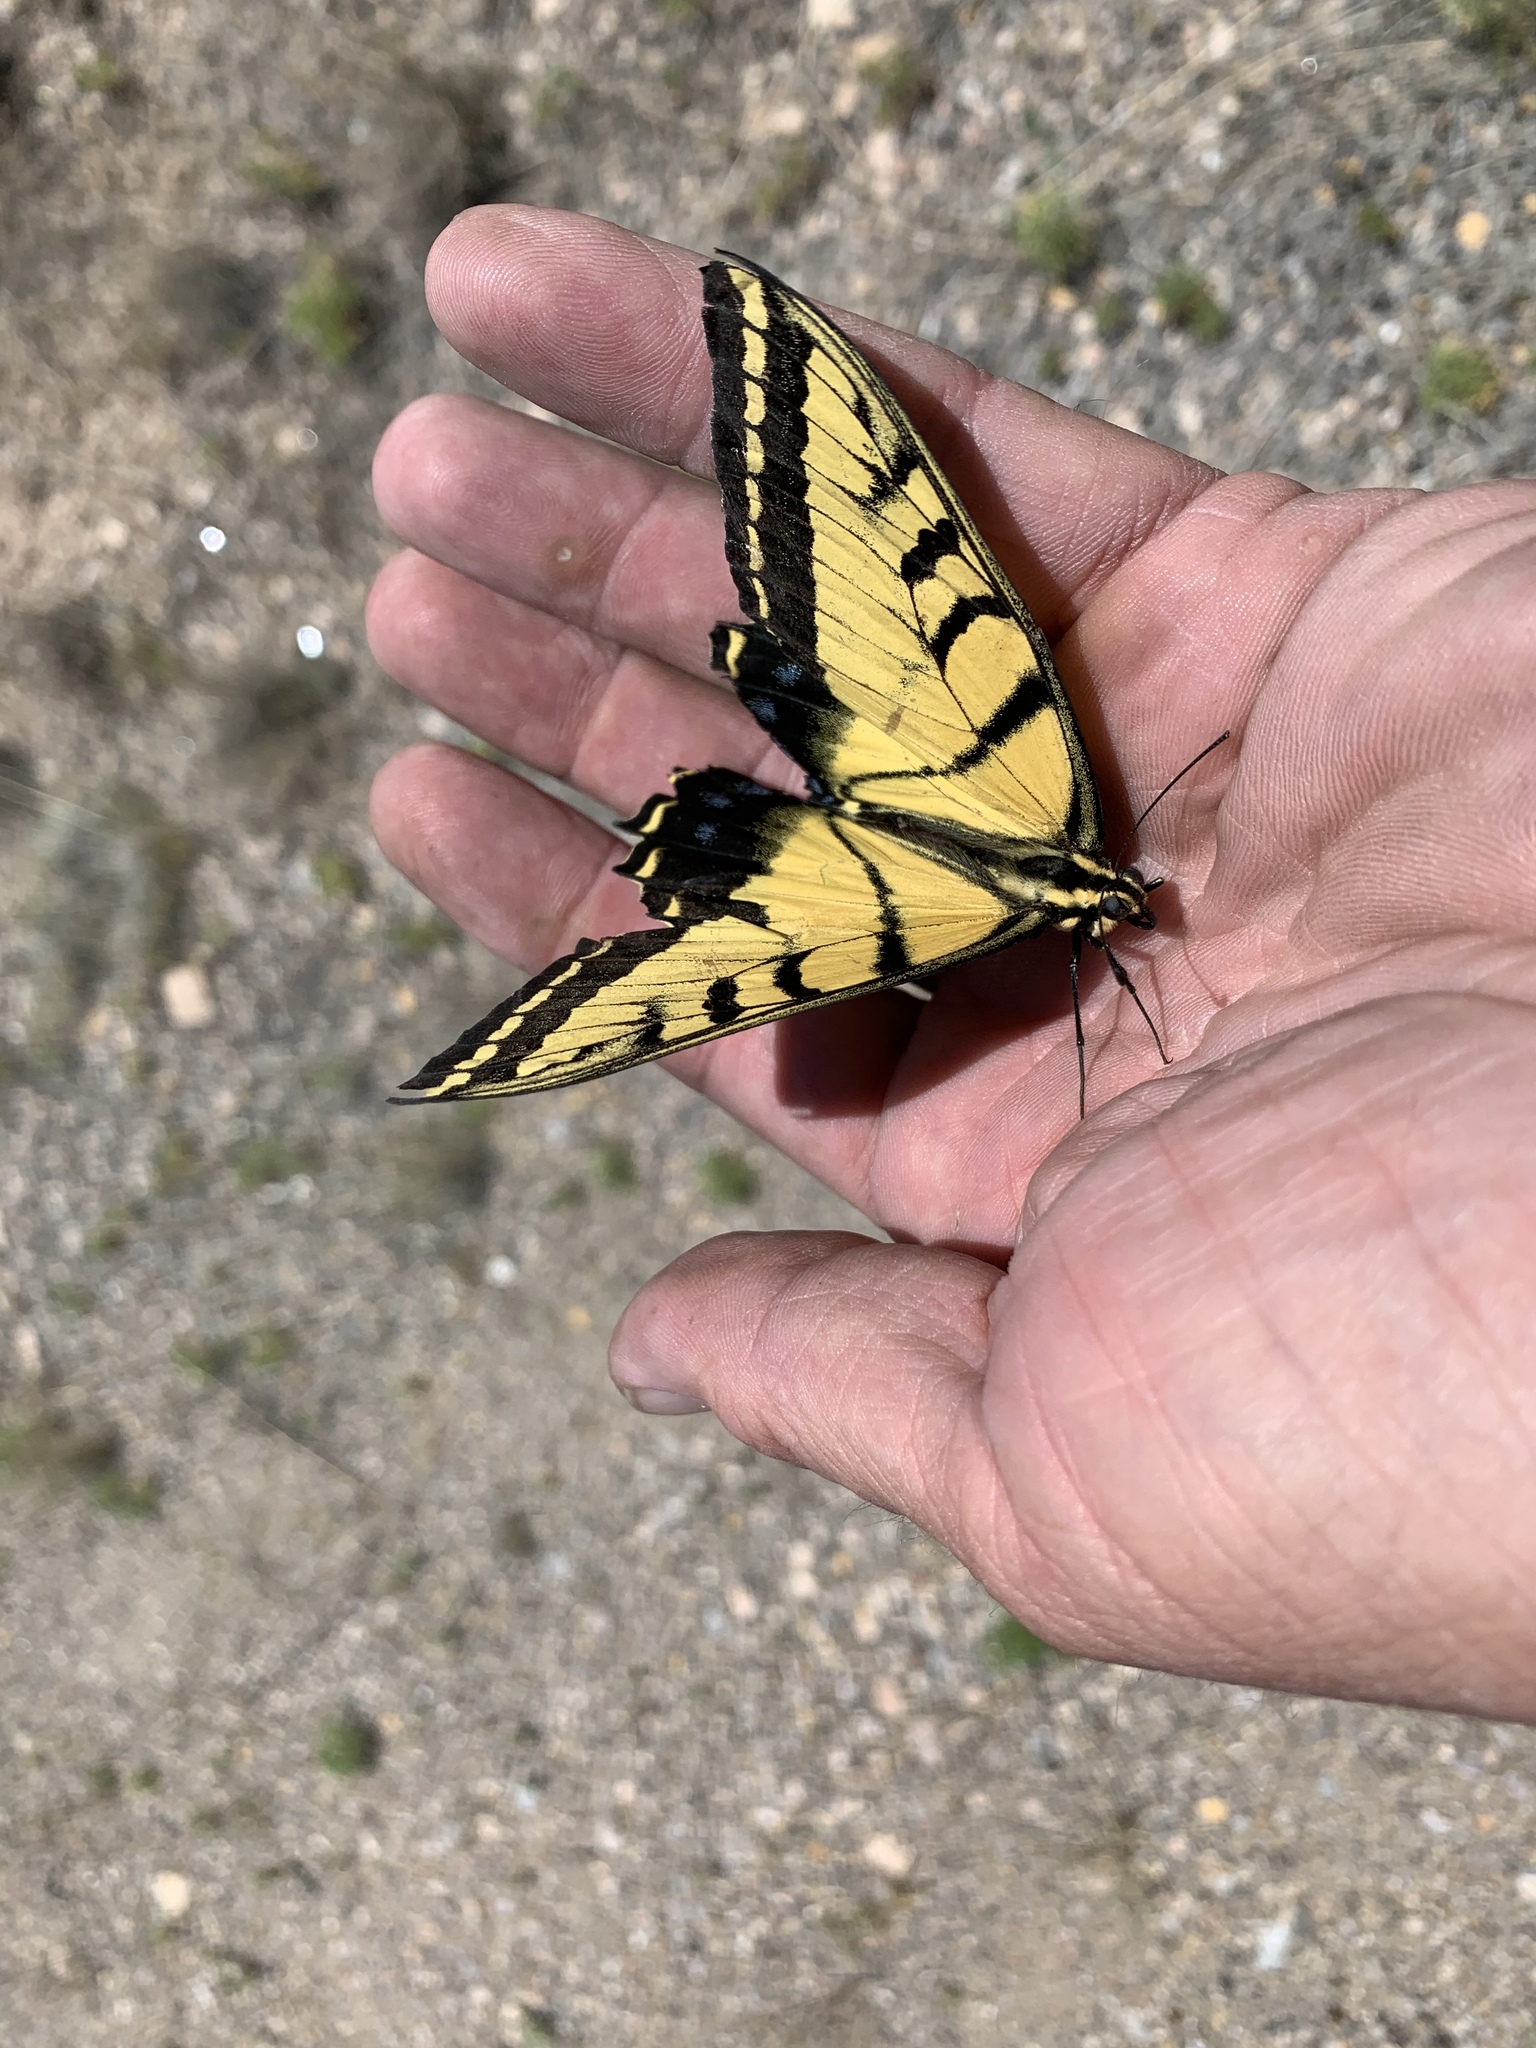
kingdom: Animalia
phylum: Arthropoda
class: Insecta
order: Lepidoptera
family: Papilionidae
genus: Papilio
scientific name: Papilio multicaudata
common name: Two-tailed tiger swallowtail
